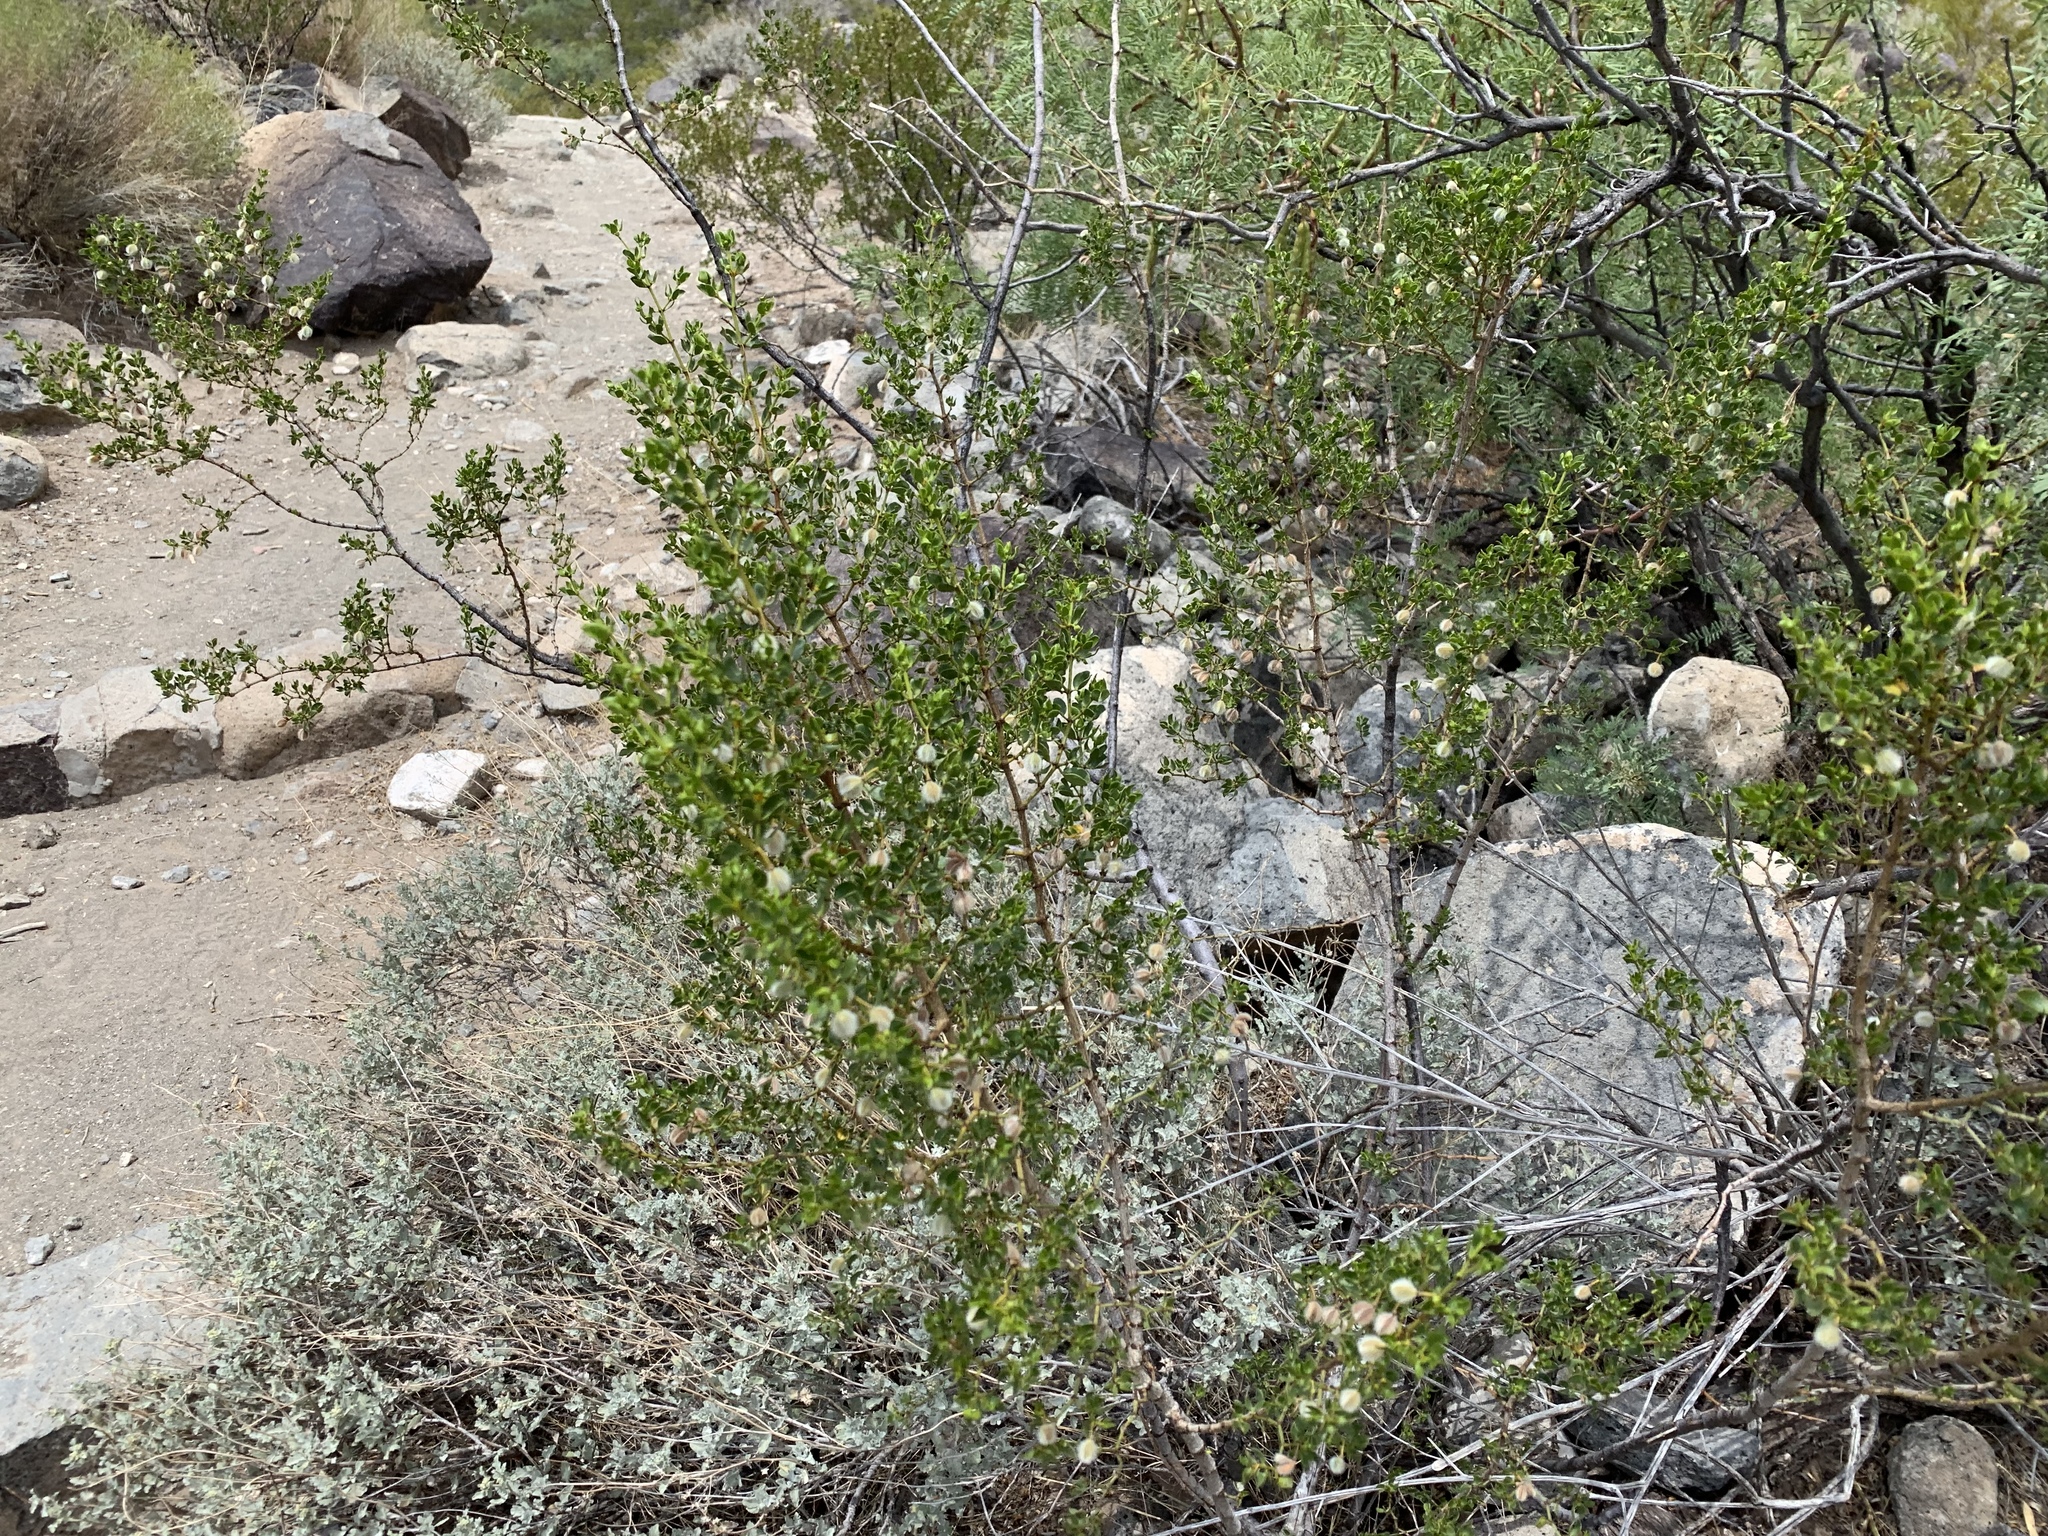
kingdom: Plantae
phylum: Tracheophyta
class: Magnoliopsida
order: Zygophyllales
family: Zygophyllaceae
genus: Larrea
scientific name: Larrea tridentata
